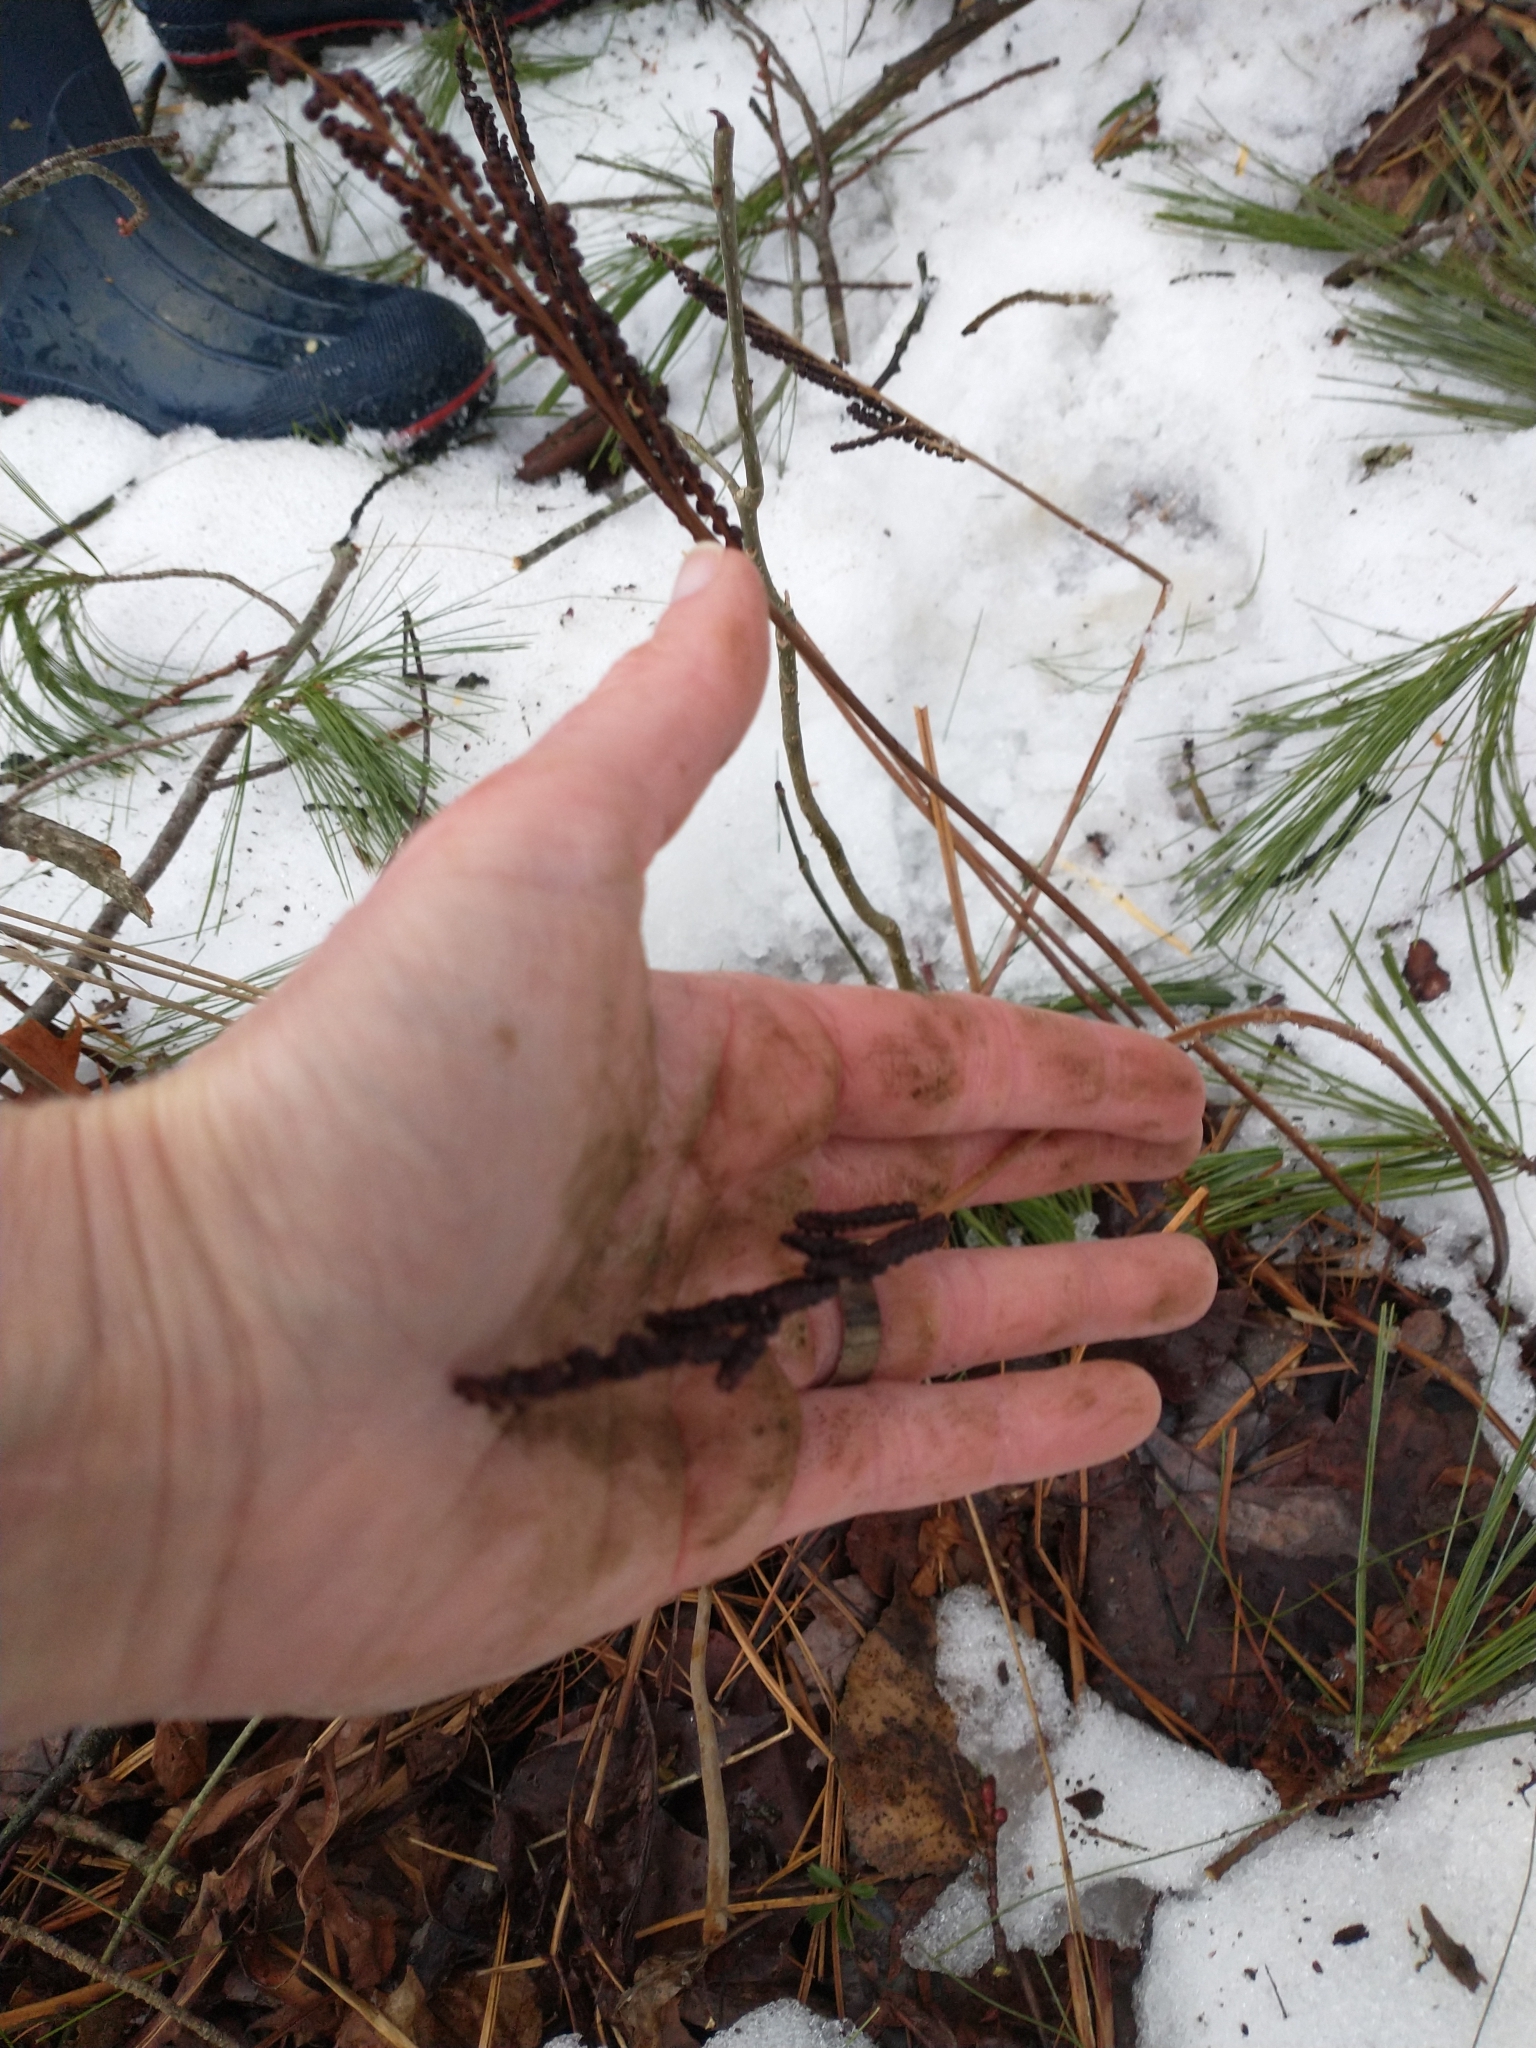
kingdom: Plantae
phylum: Tracheophyta
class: Polypodiopsida
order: Polypodiales
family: Onocleaceae
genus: Onoclea
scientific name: Onoclea sensibilis
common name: Sensitive fern
